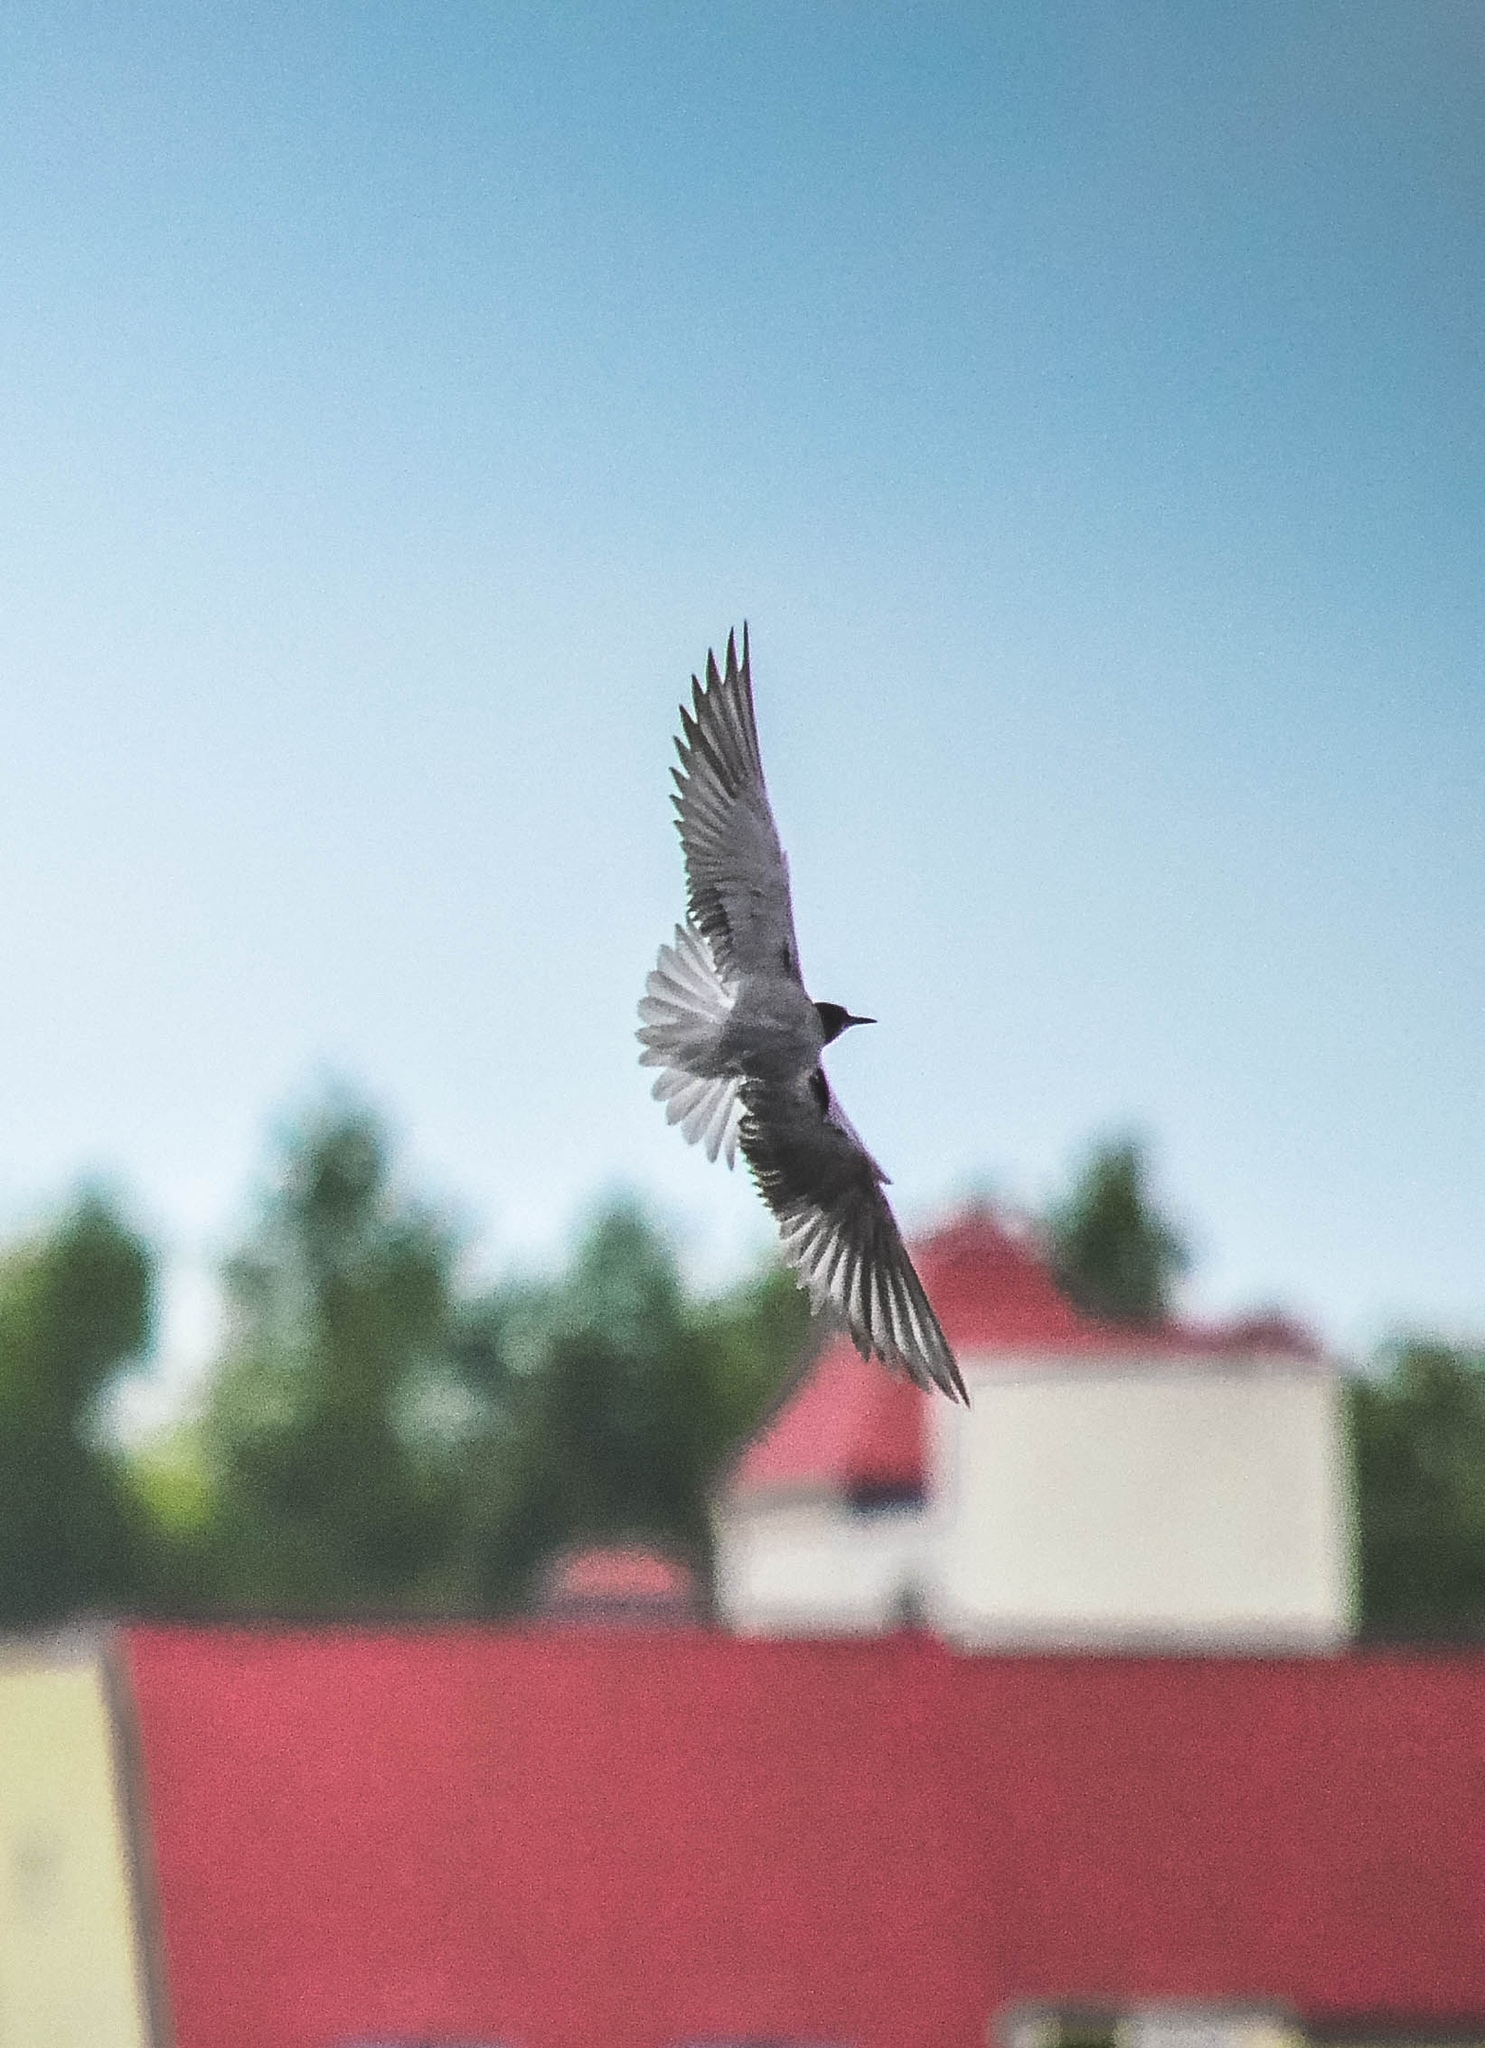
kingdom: Animalia
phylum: Chordata
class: Aves
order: Charadriiformes
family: Laridae
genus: Chlidonias
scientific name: Chlidonias niger
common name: Black tern
